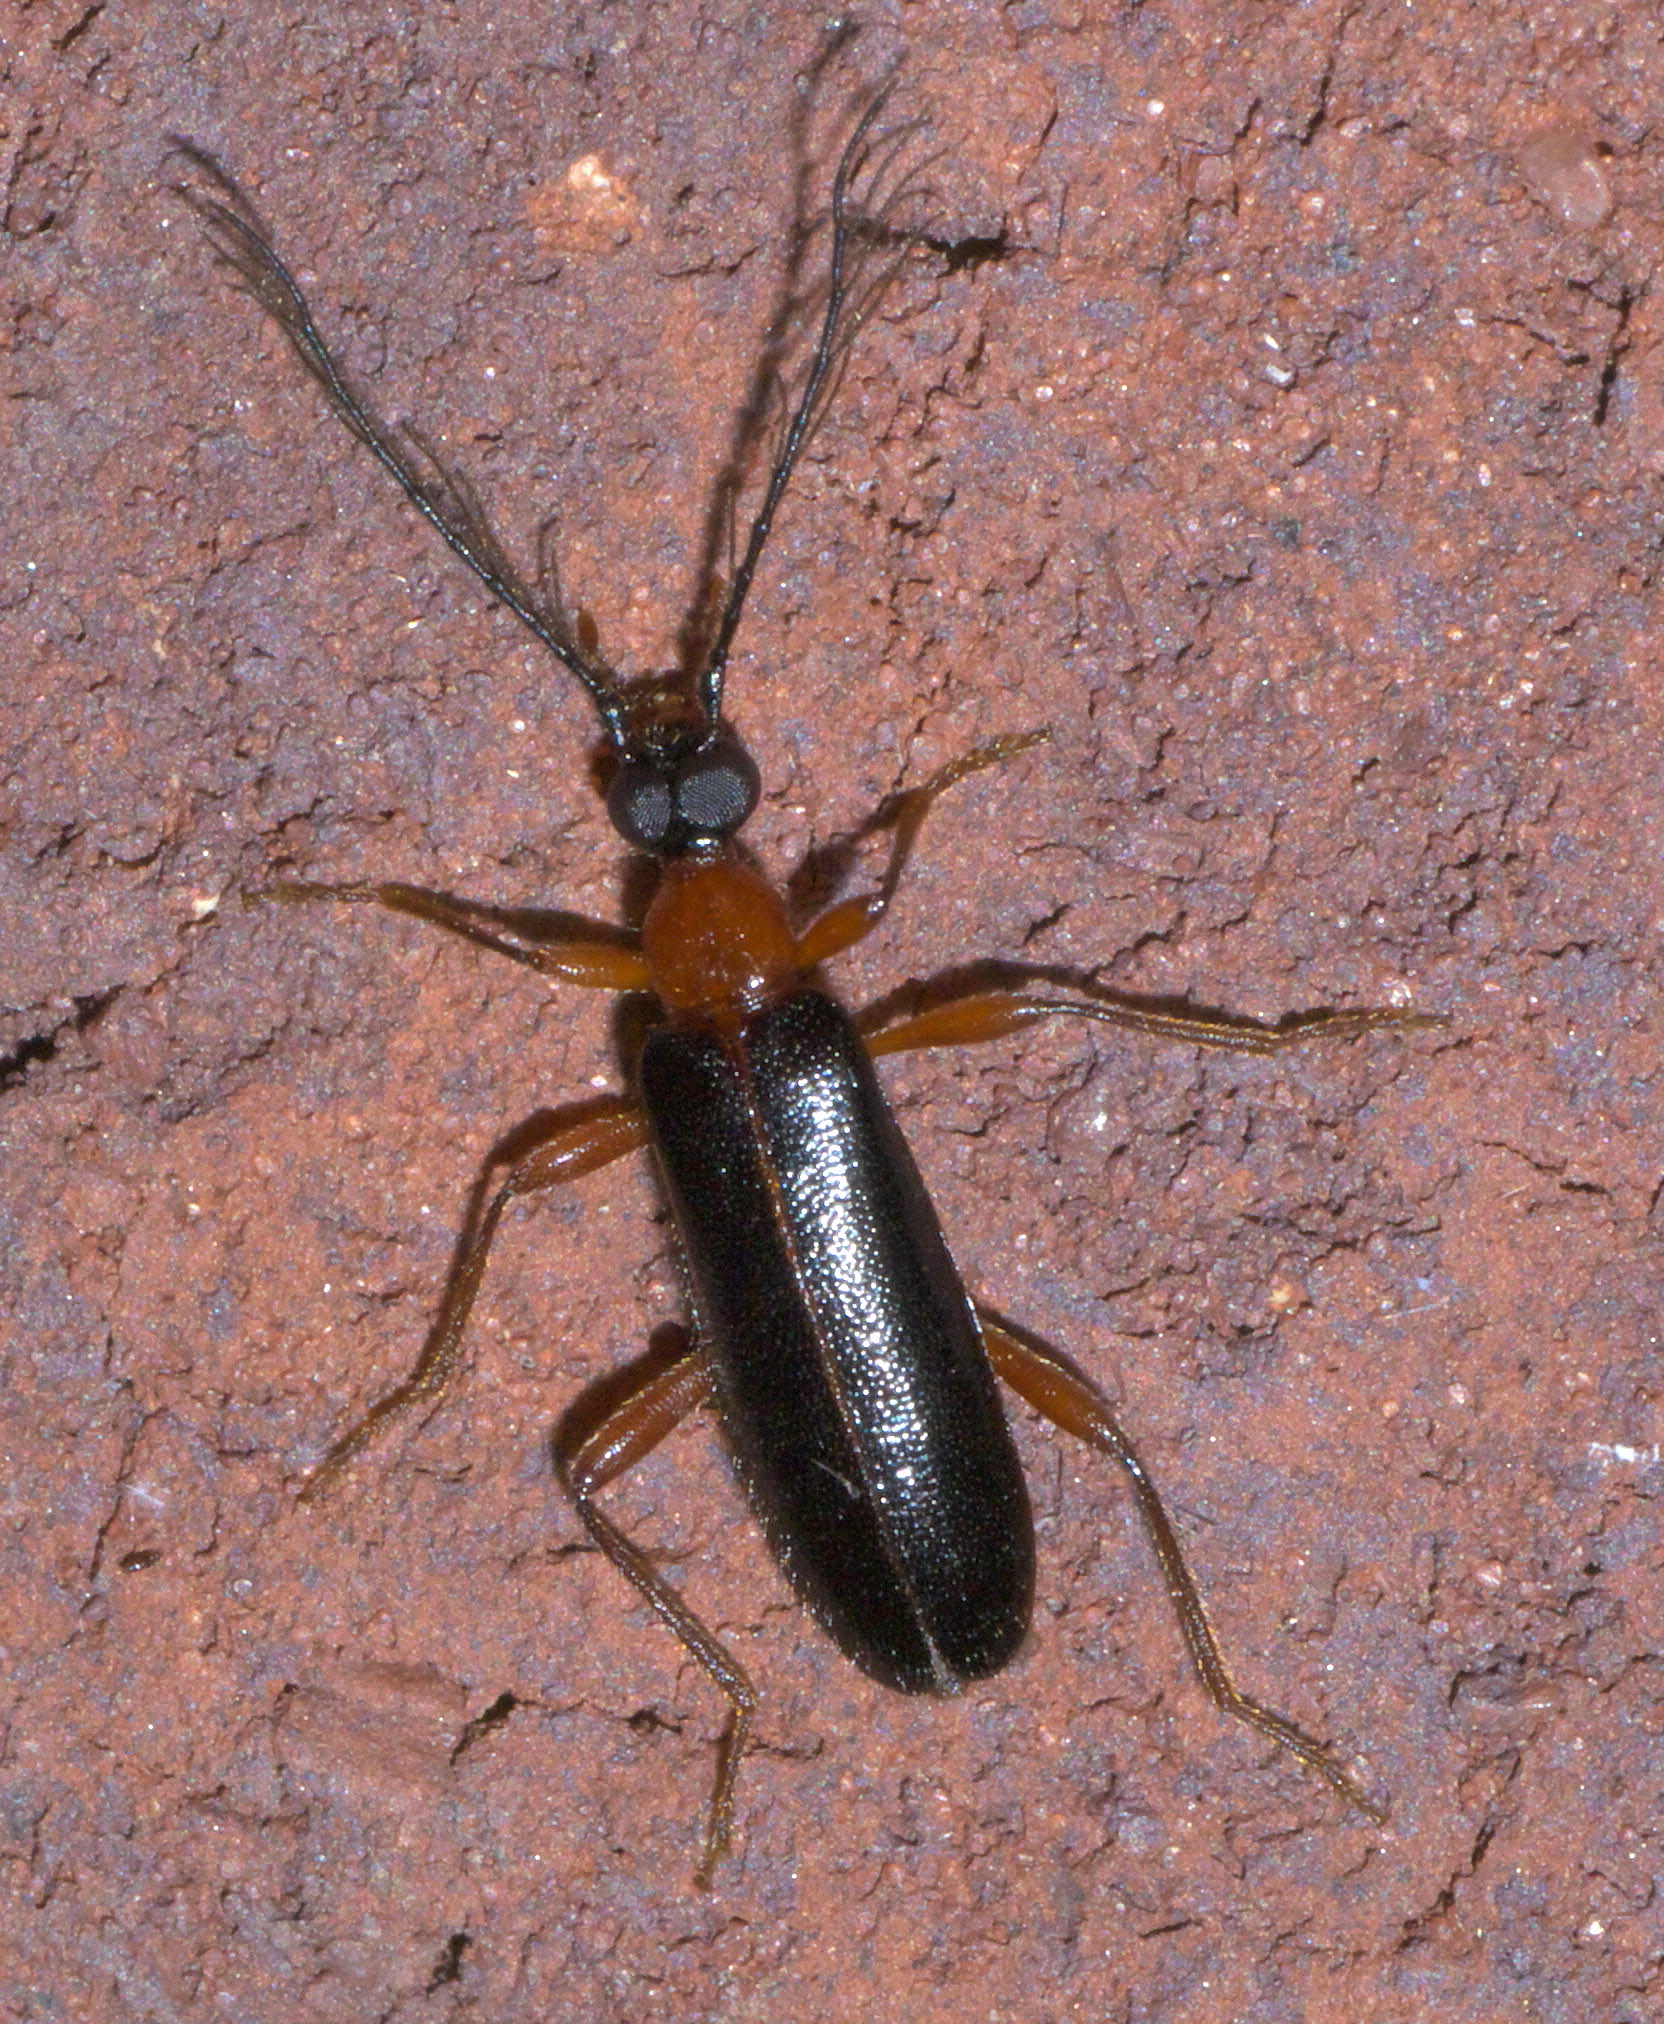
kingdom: Animalia
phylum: Arthropoda
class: Insecta
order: Coleoptera
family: Pyrochroidae
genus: Dendroides
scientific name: Dendroides canadensis
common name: Canada fire-colored beetle
